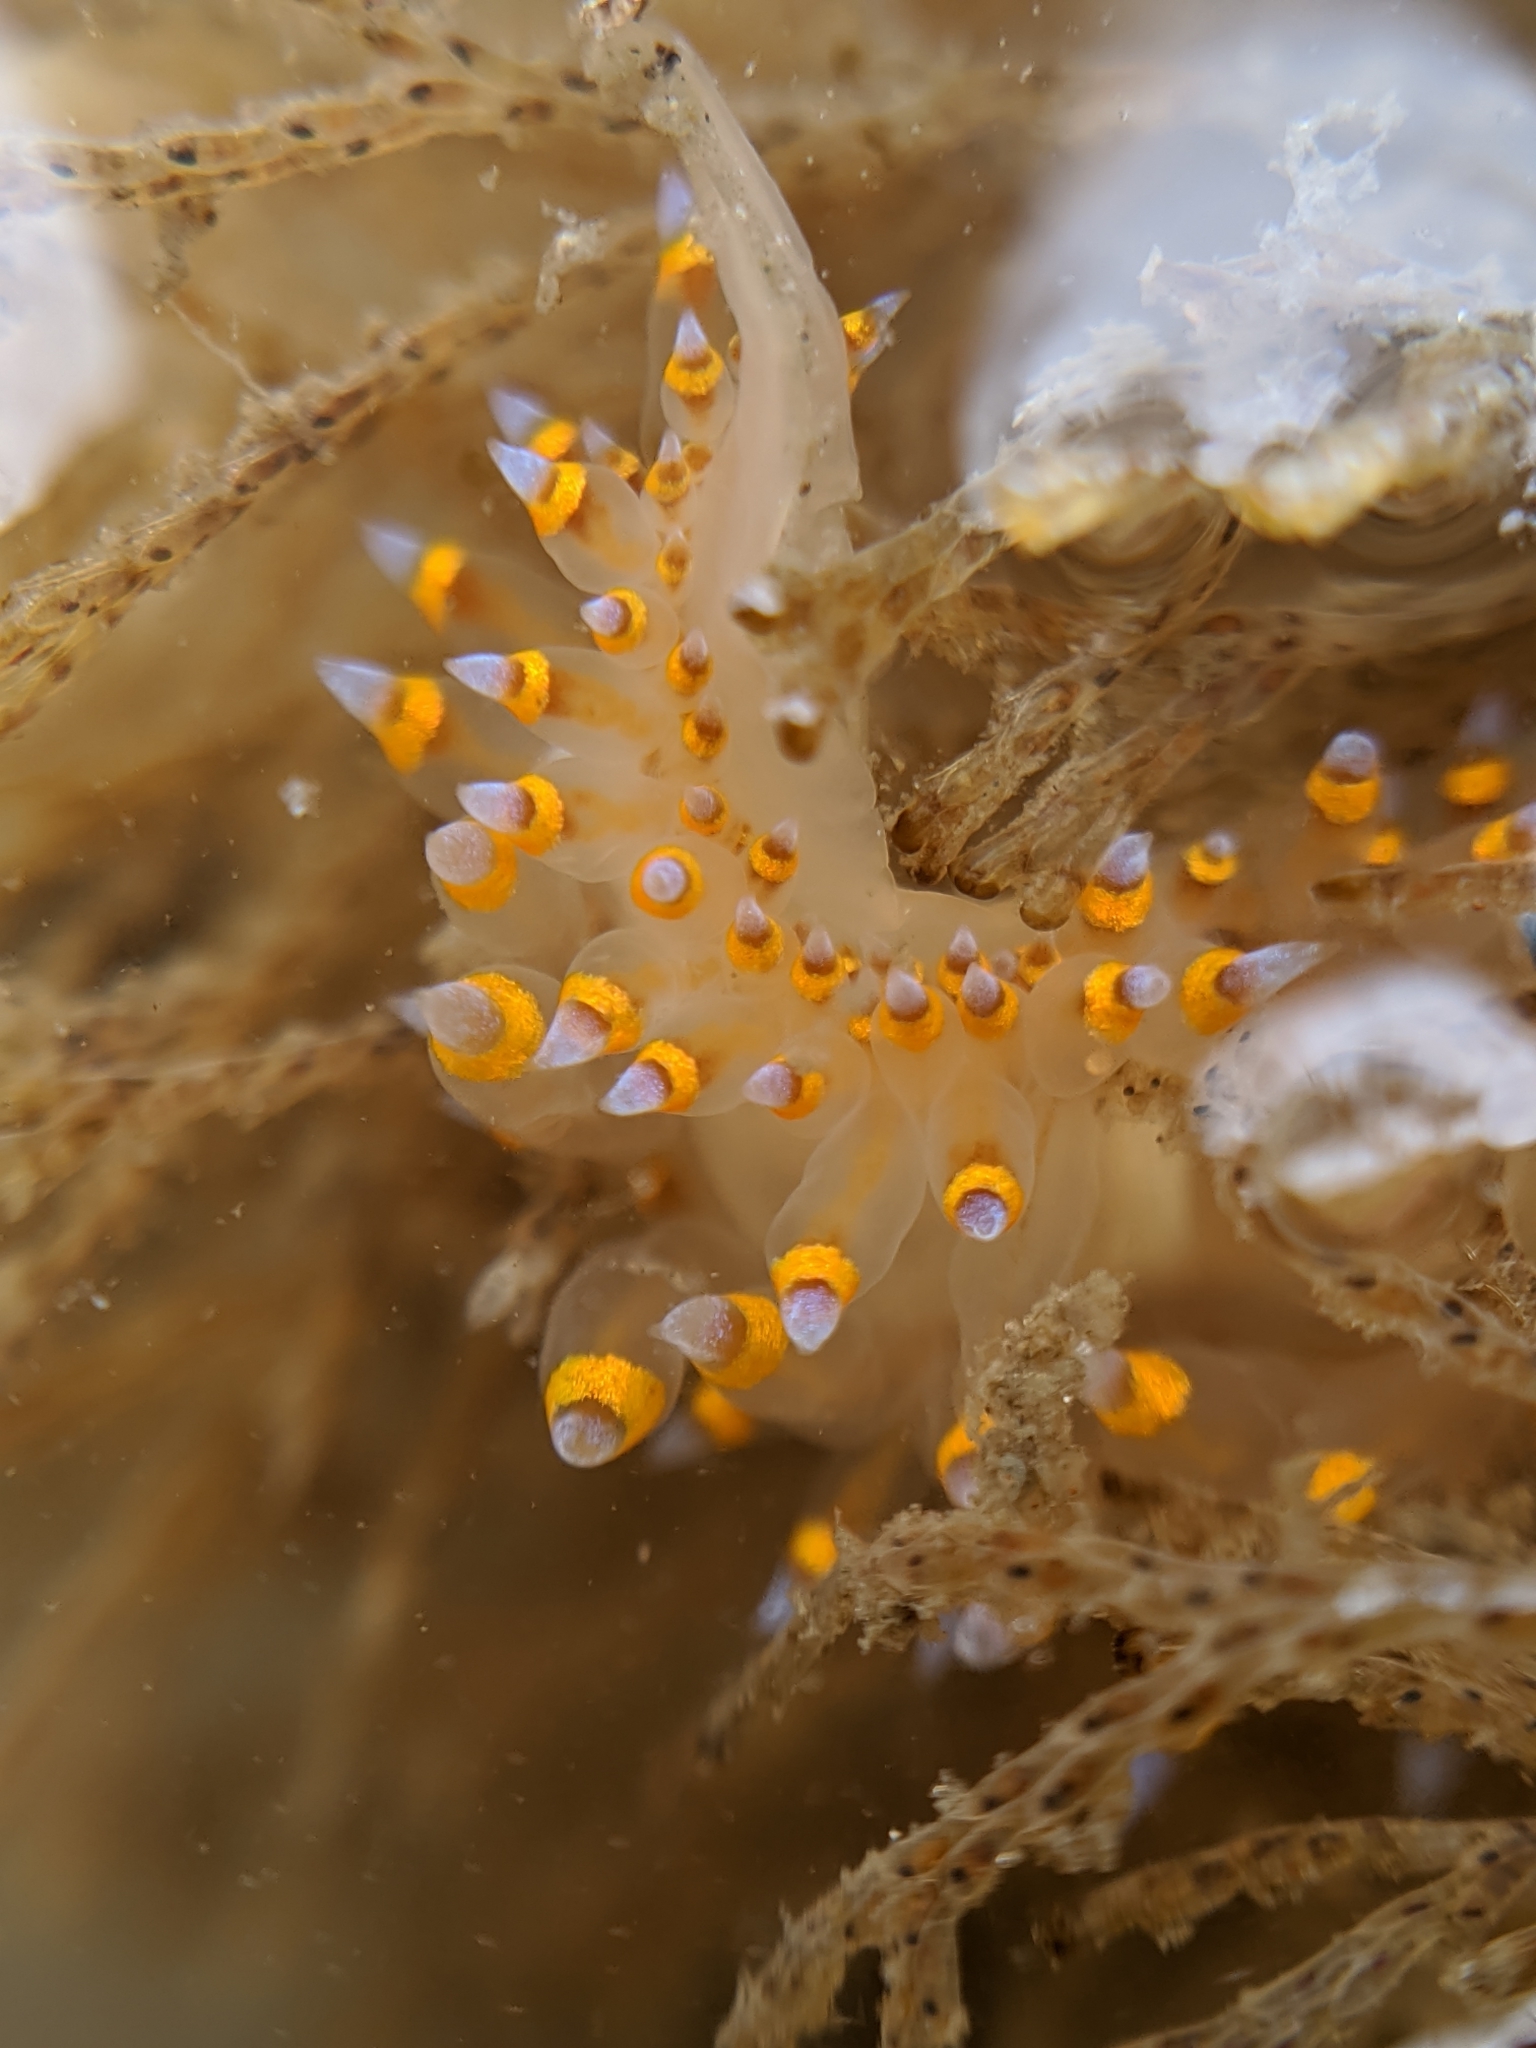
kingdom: Animalia
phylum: Mollusca
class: Gastropoda
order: Nudibranchia
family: Janolidae
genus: Antiopella
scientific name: Antiopella barbarensis
